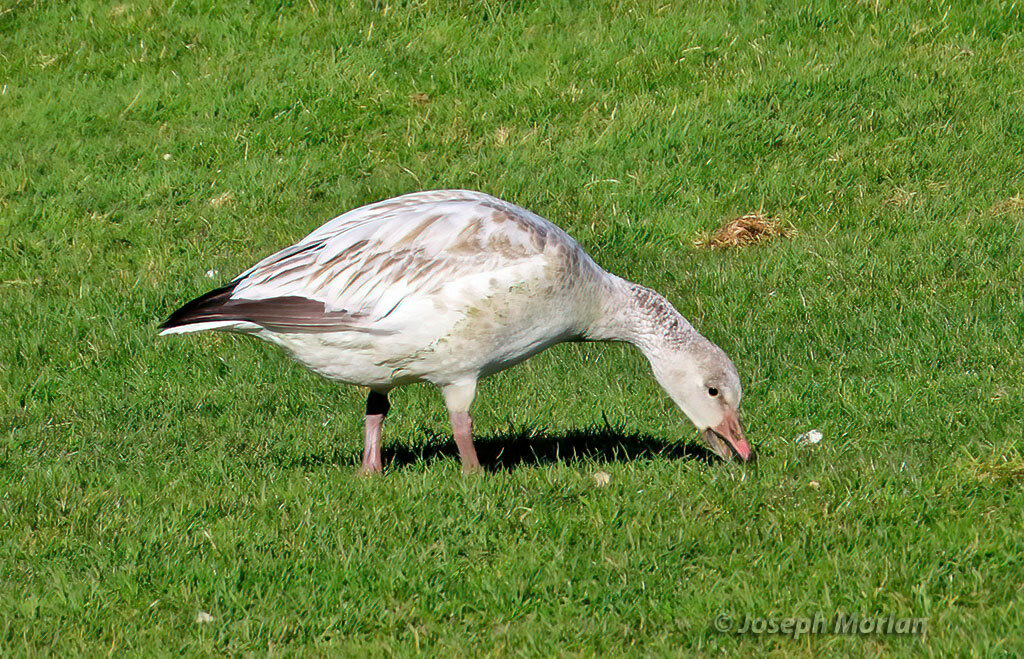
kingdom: Animalia
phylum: Chordata
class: Aves
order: Anseriformes
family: Anatidae
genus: Anser
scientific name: Anser caerulescens
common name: Snow goose
